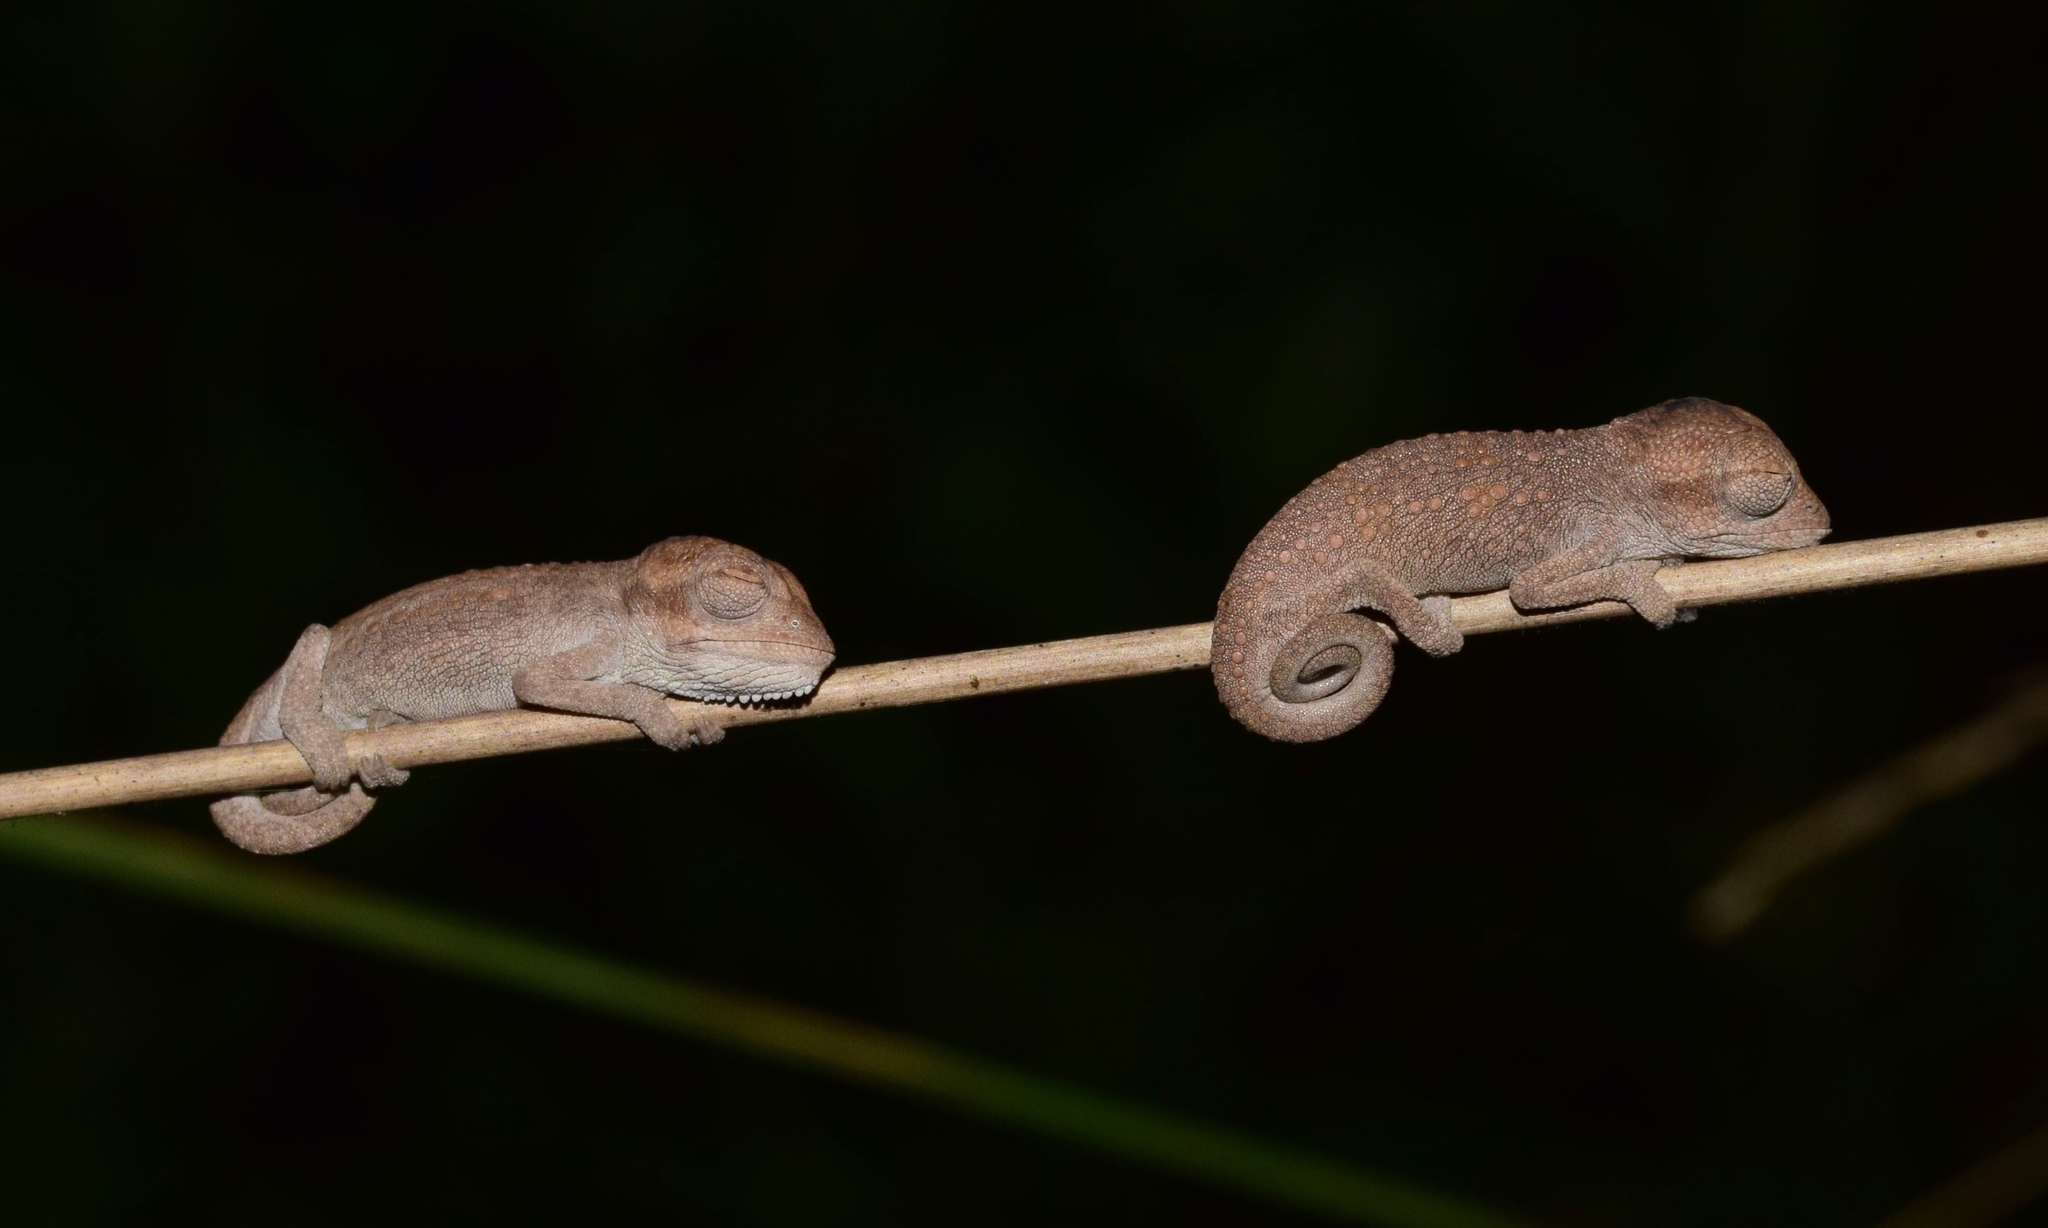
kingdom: Animalia
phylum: Chordata
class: Squamata
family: Chamaeleonidae
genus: Bradypodion
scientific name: Bradypodion melanocephalum
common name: Black-headed dwarf chameleon
